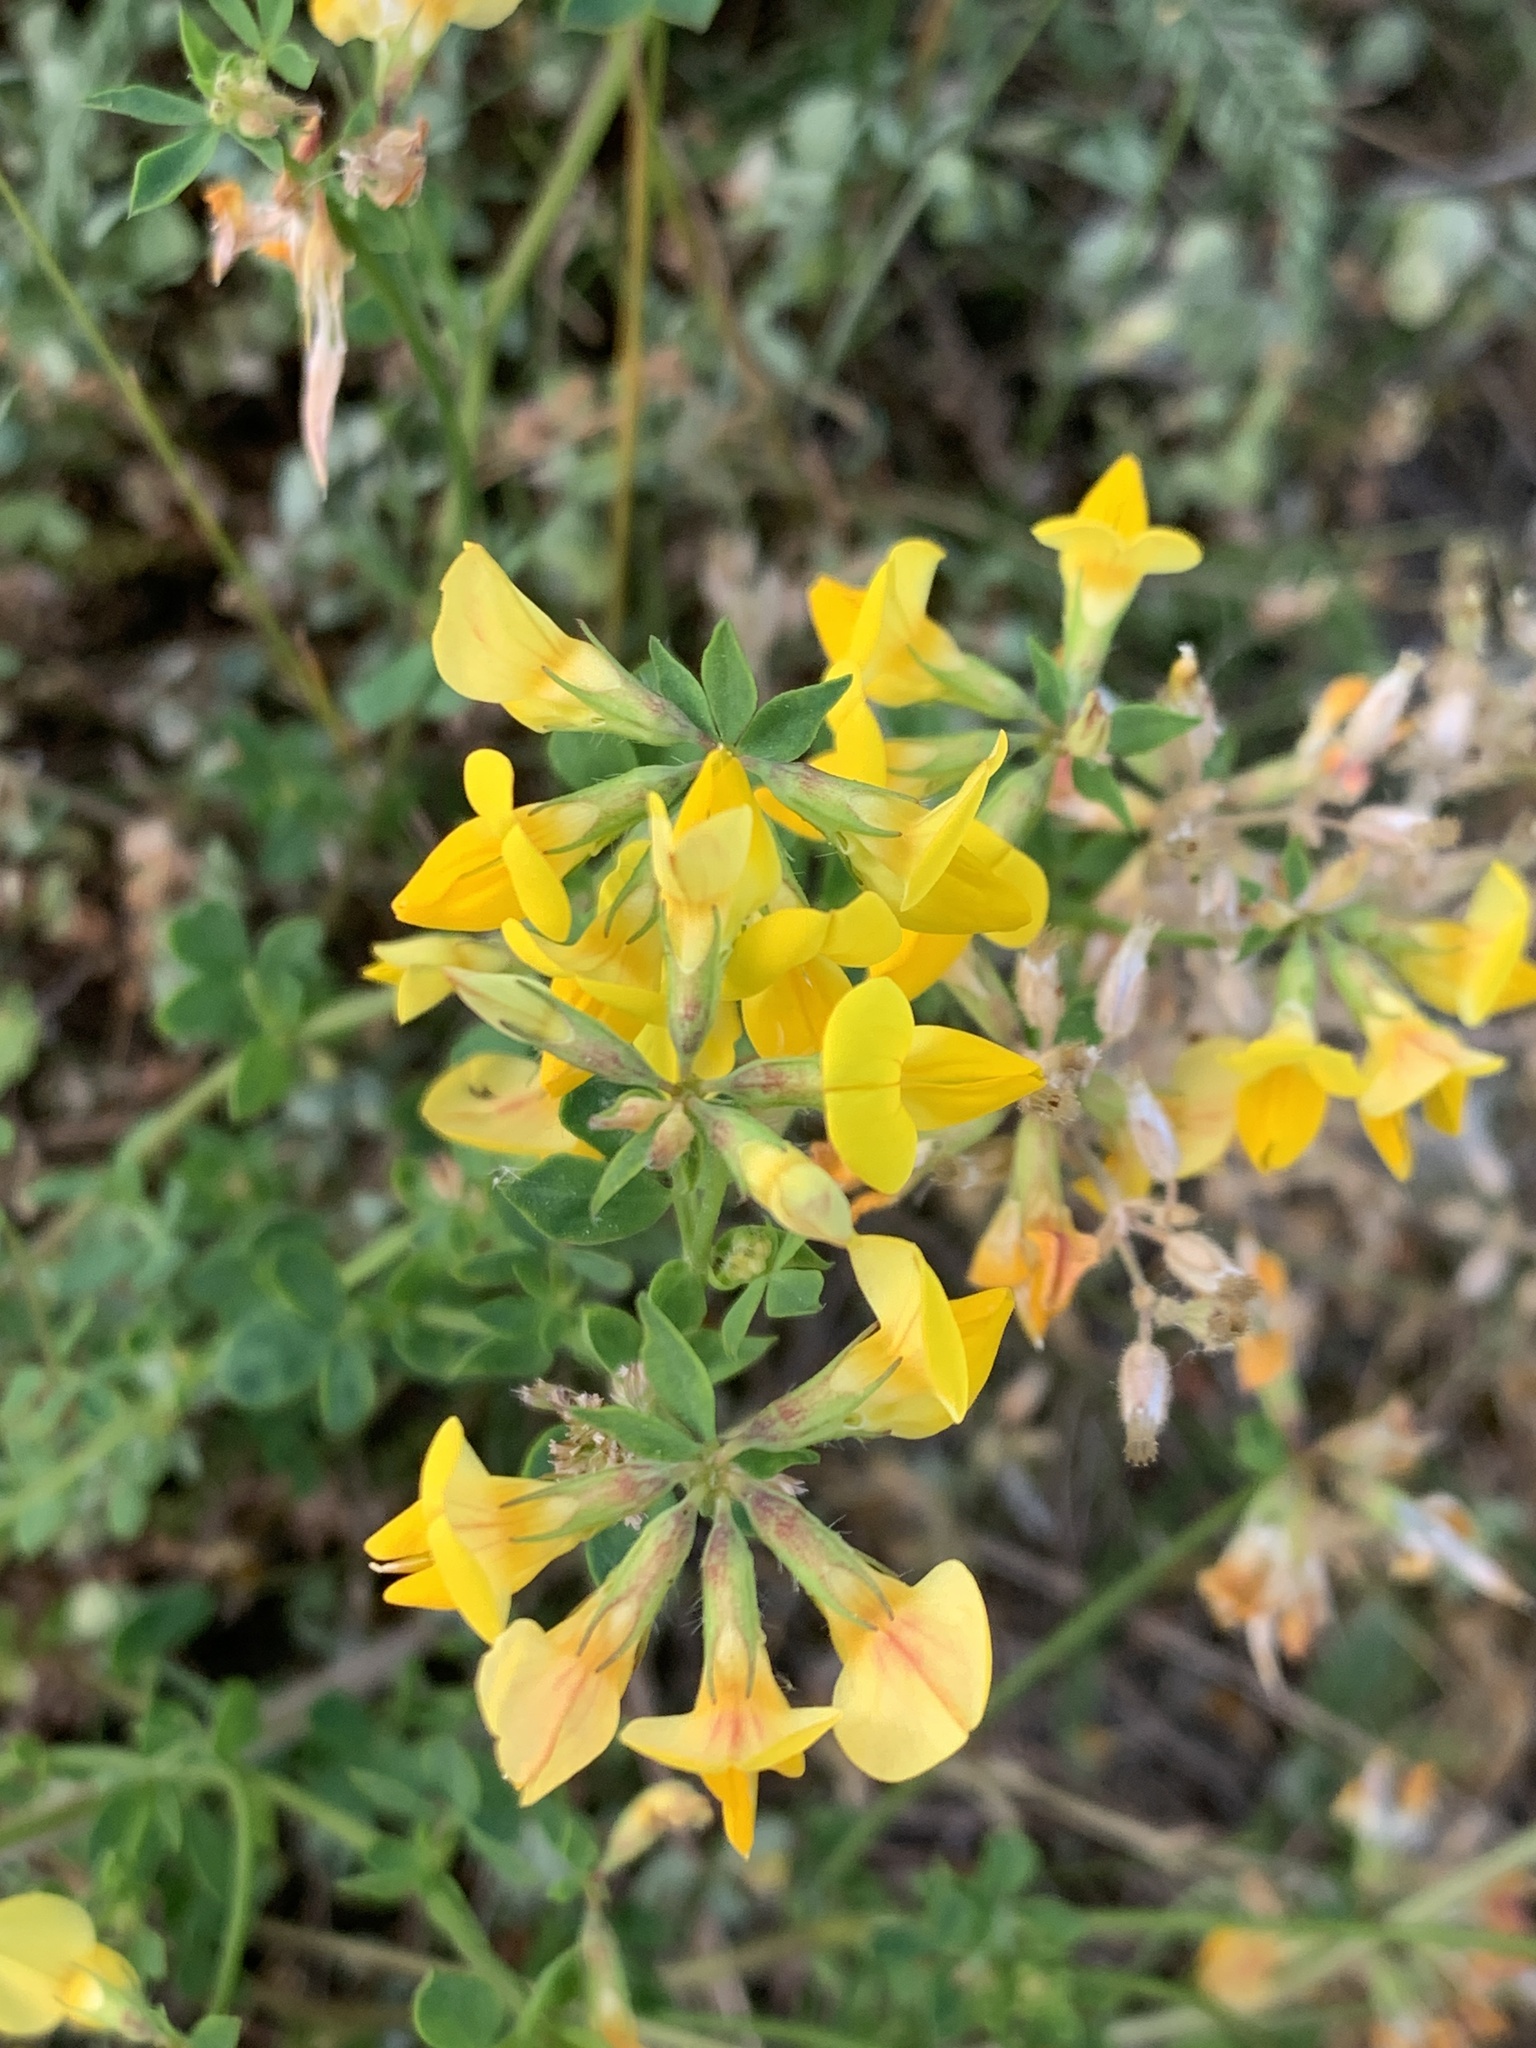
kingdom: Plantae
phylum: Tracheophyta
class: Magnoliopsida
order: Fabales
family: Fabaceae
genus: Lotus
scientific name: Lotus corniculatus
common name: Common bird's-foot-trefoil
